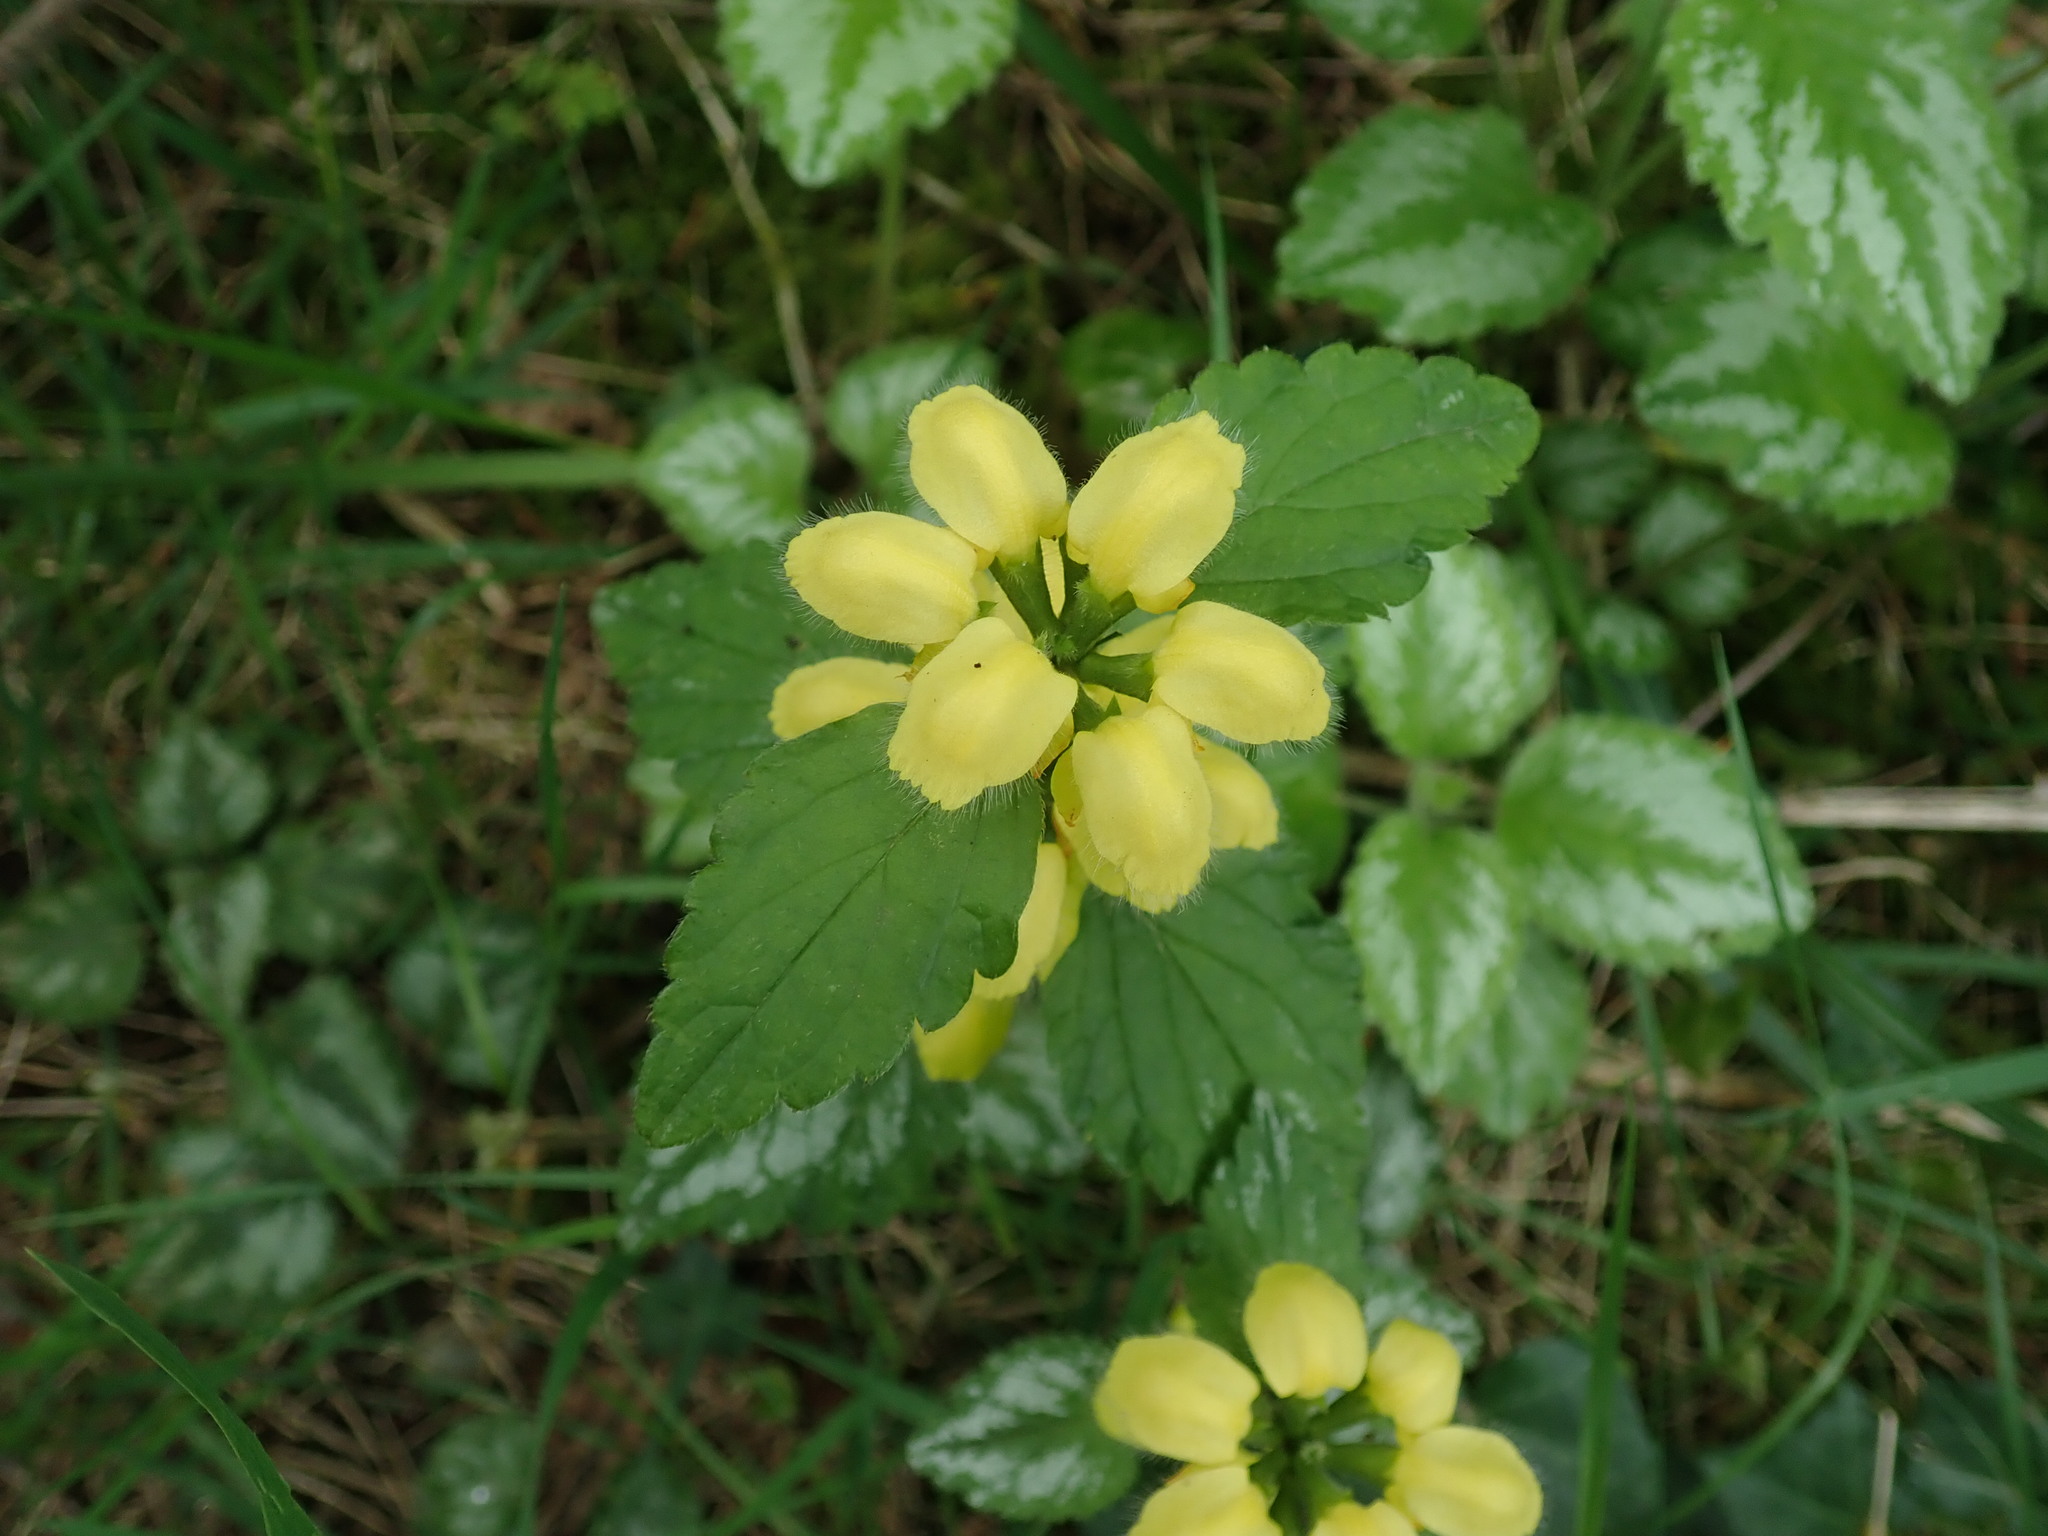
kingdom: Plantae
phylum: Tracheophyta
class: Magnoliopsida
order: Lamiales
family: Lamiaceae
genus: Lamium
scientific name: Lamium galeobdolon
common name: Yellow archangel
